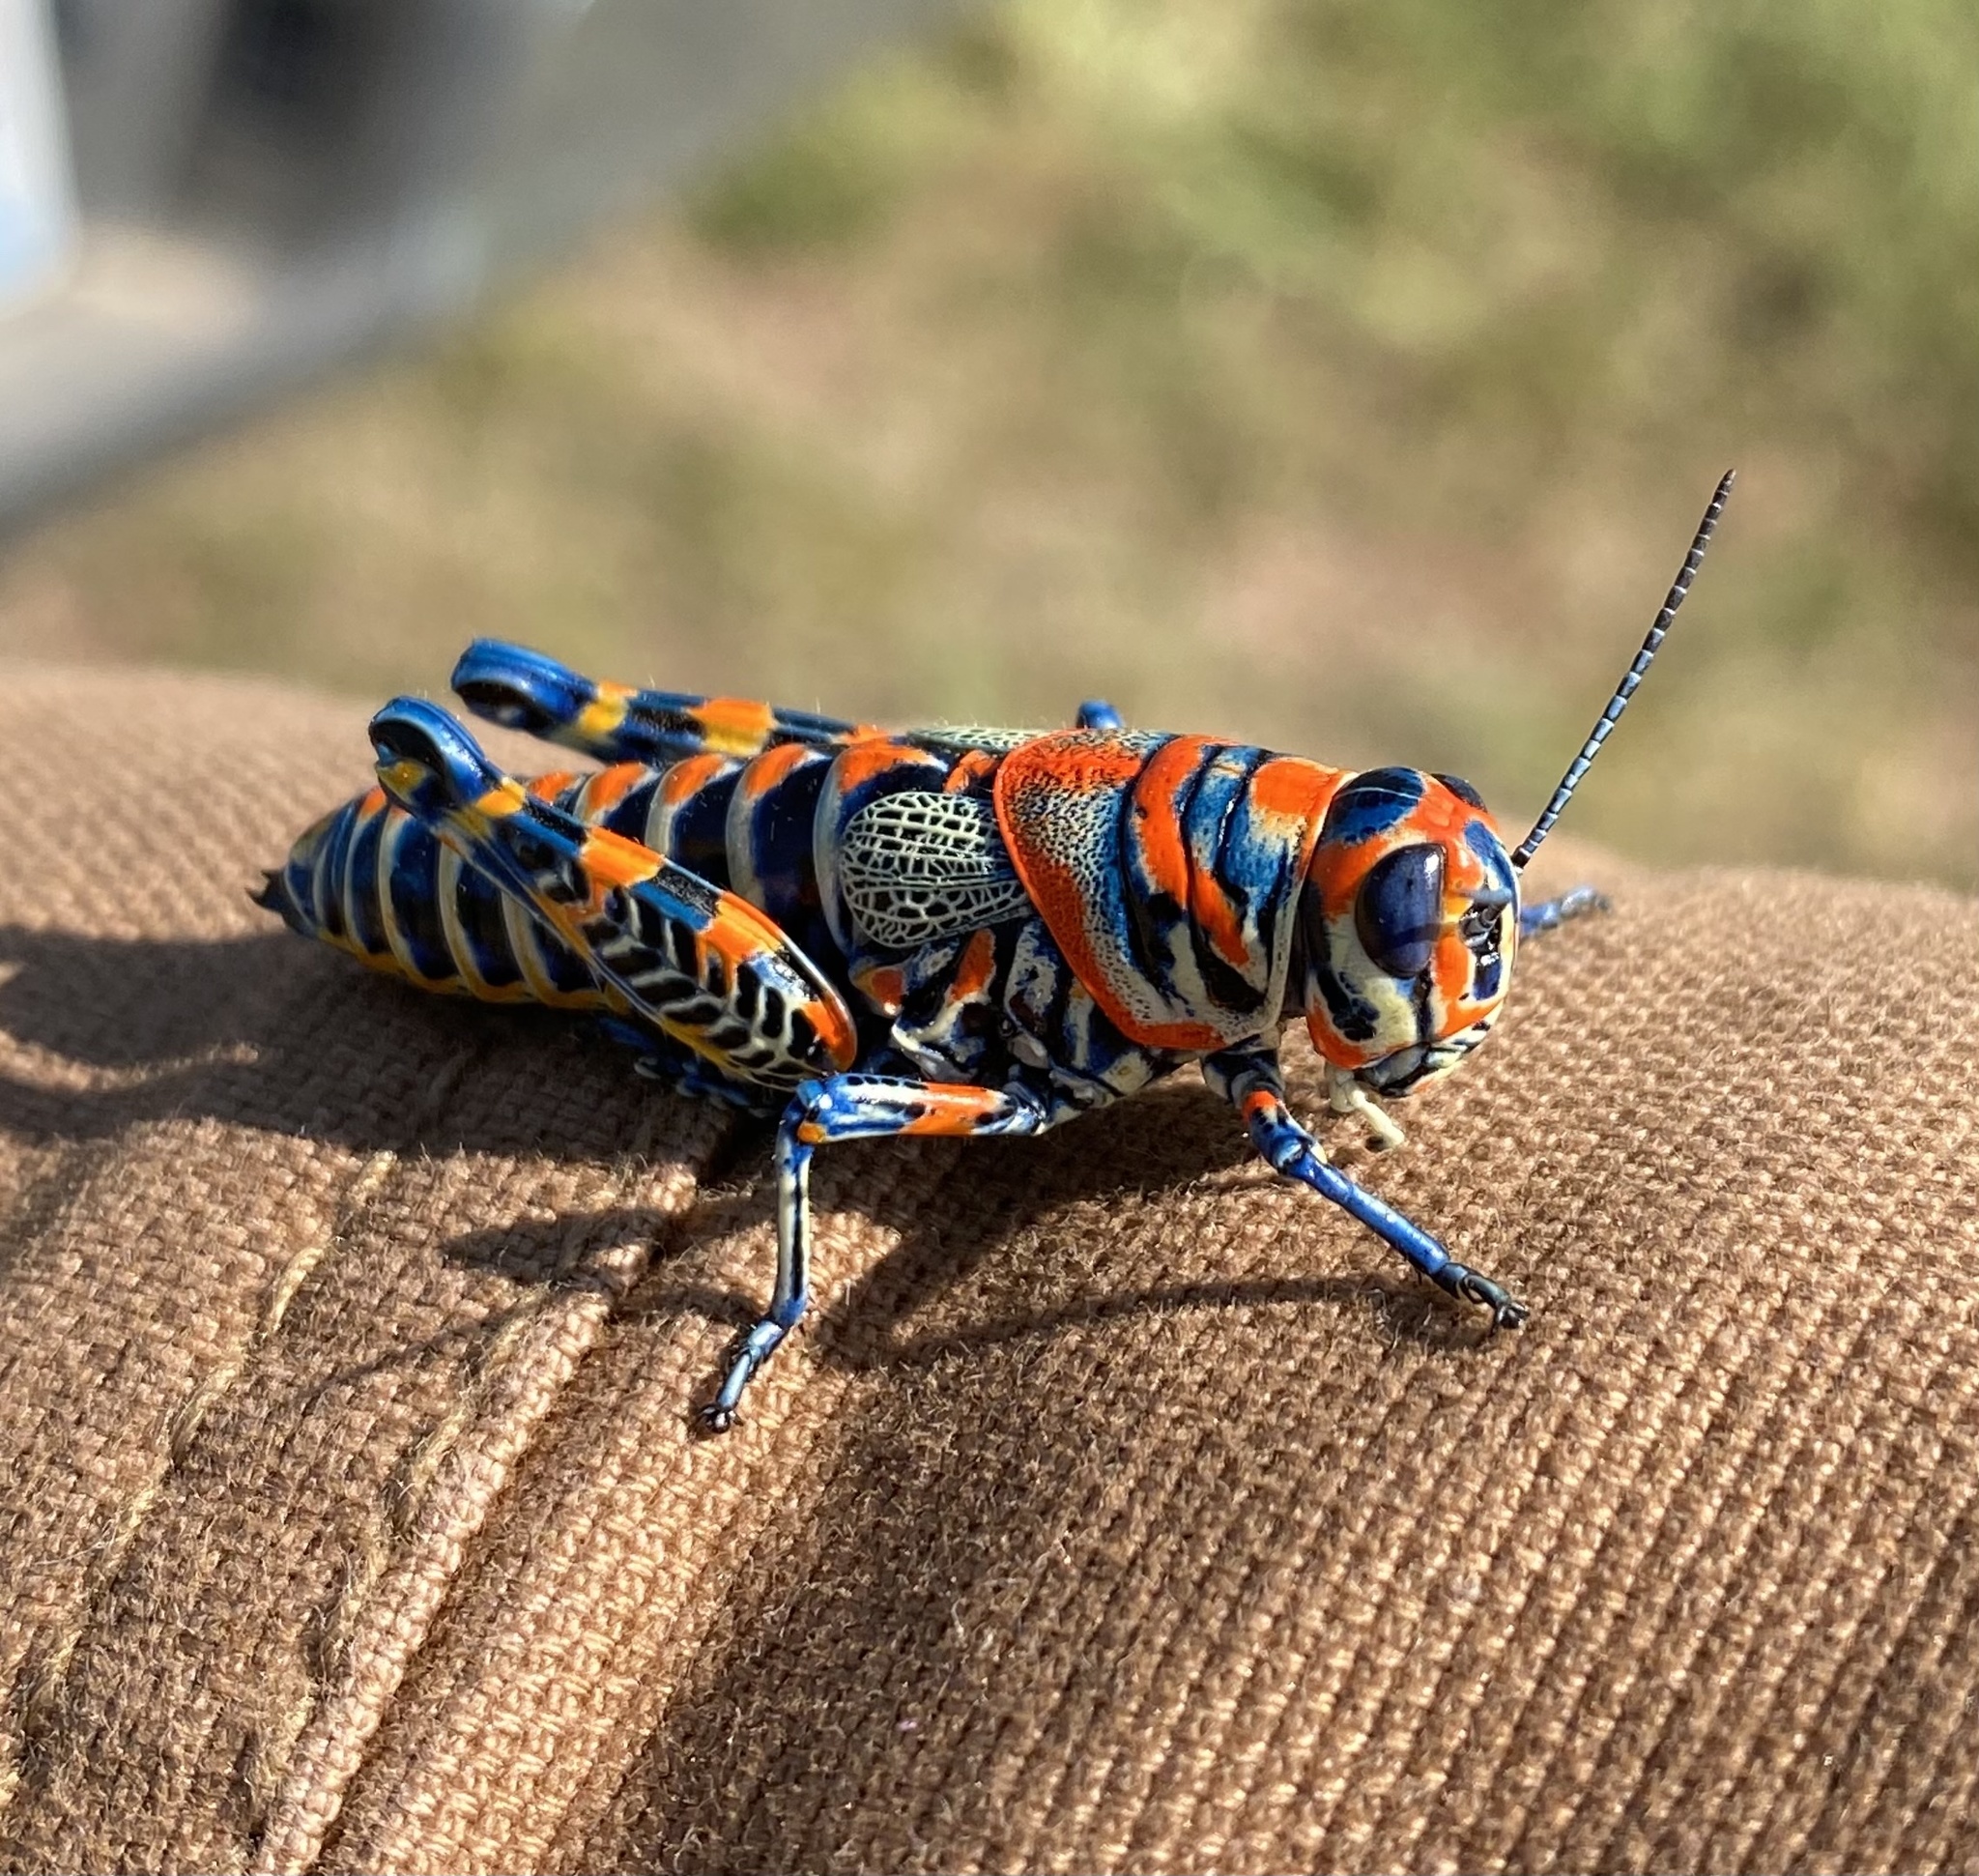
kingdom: Animalia
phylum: Arthropoda
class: Insecta
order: Orthoptera
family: Acrididae
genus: Dactylotum
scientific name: Dactylotum bicolor
